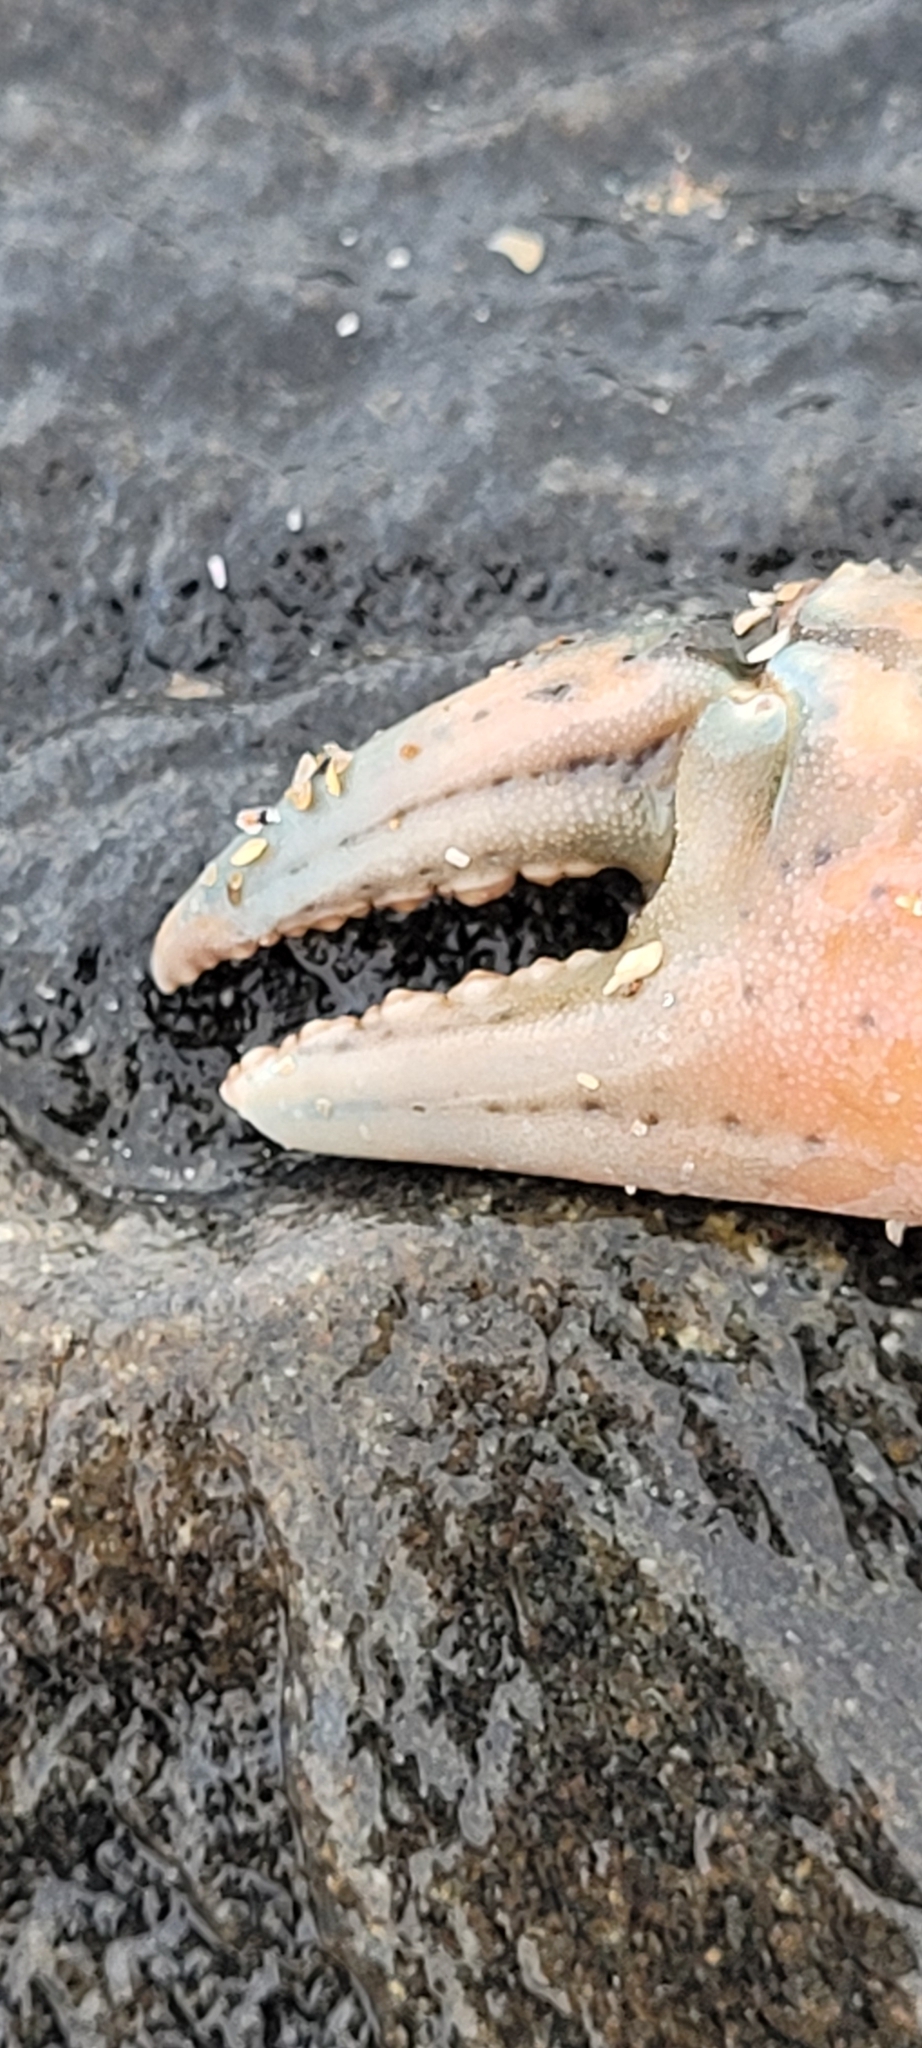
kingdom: Animalia
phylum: Arthropoda
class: Malacostraca
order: Decapoda
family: Carcinidae
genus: Carcinus
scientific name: Carcinus maenas
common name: European green crab
